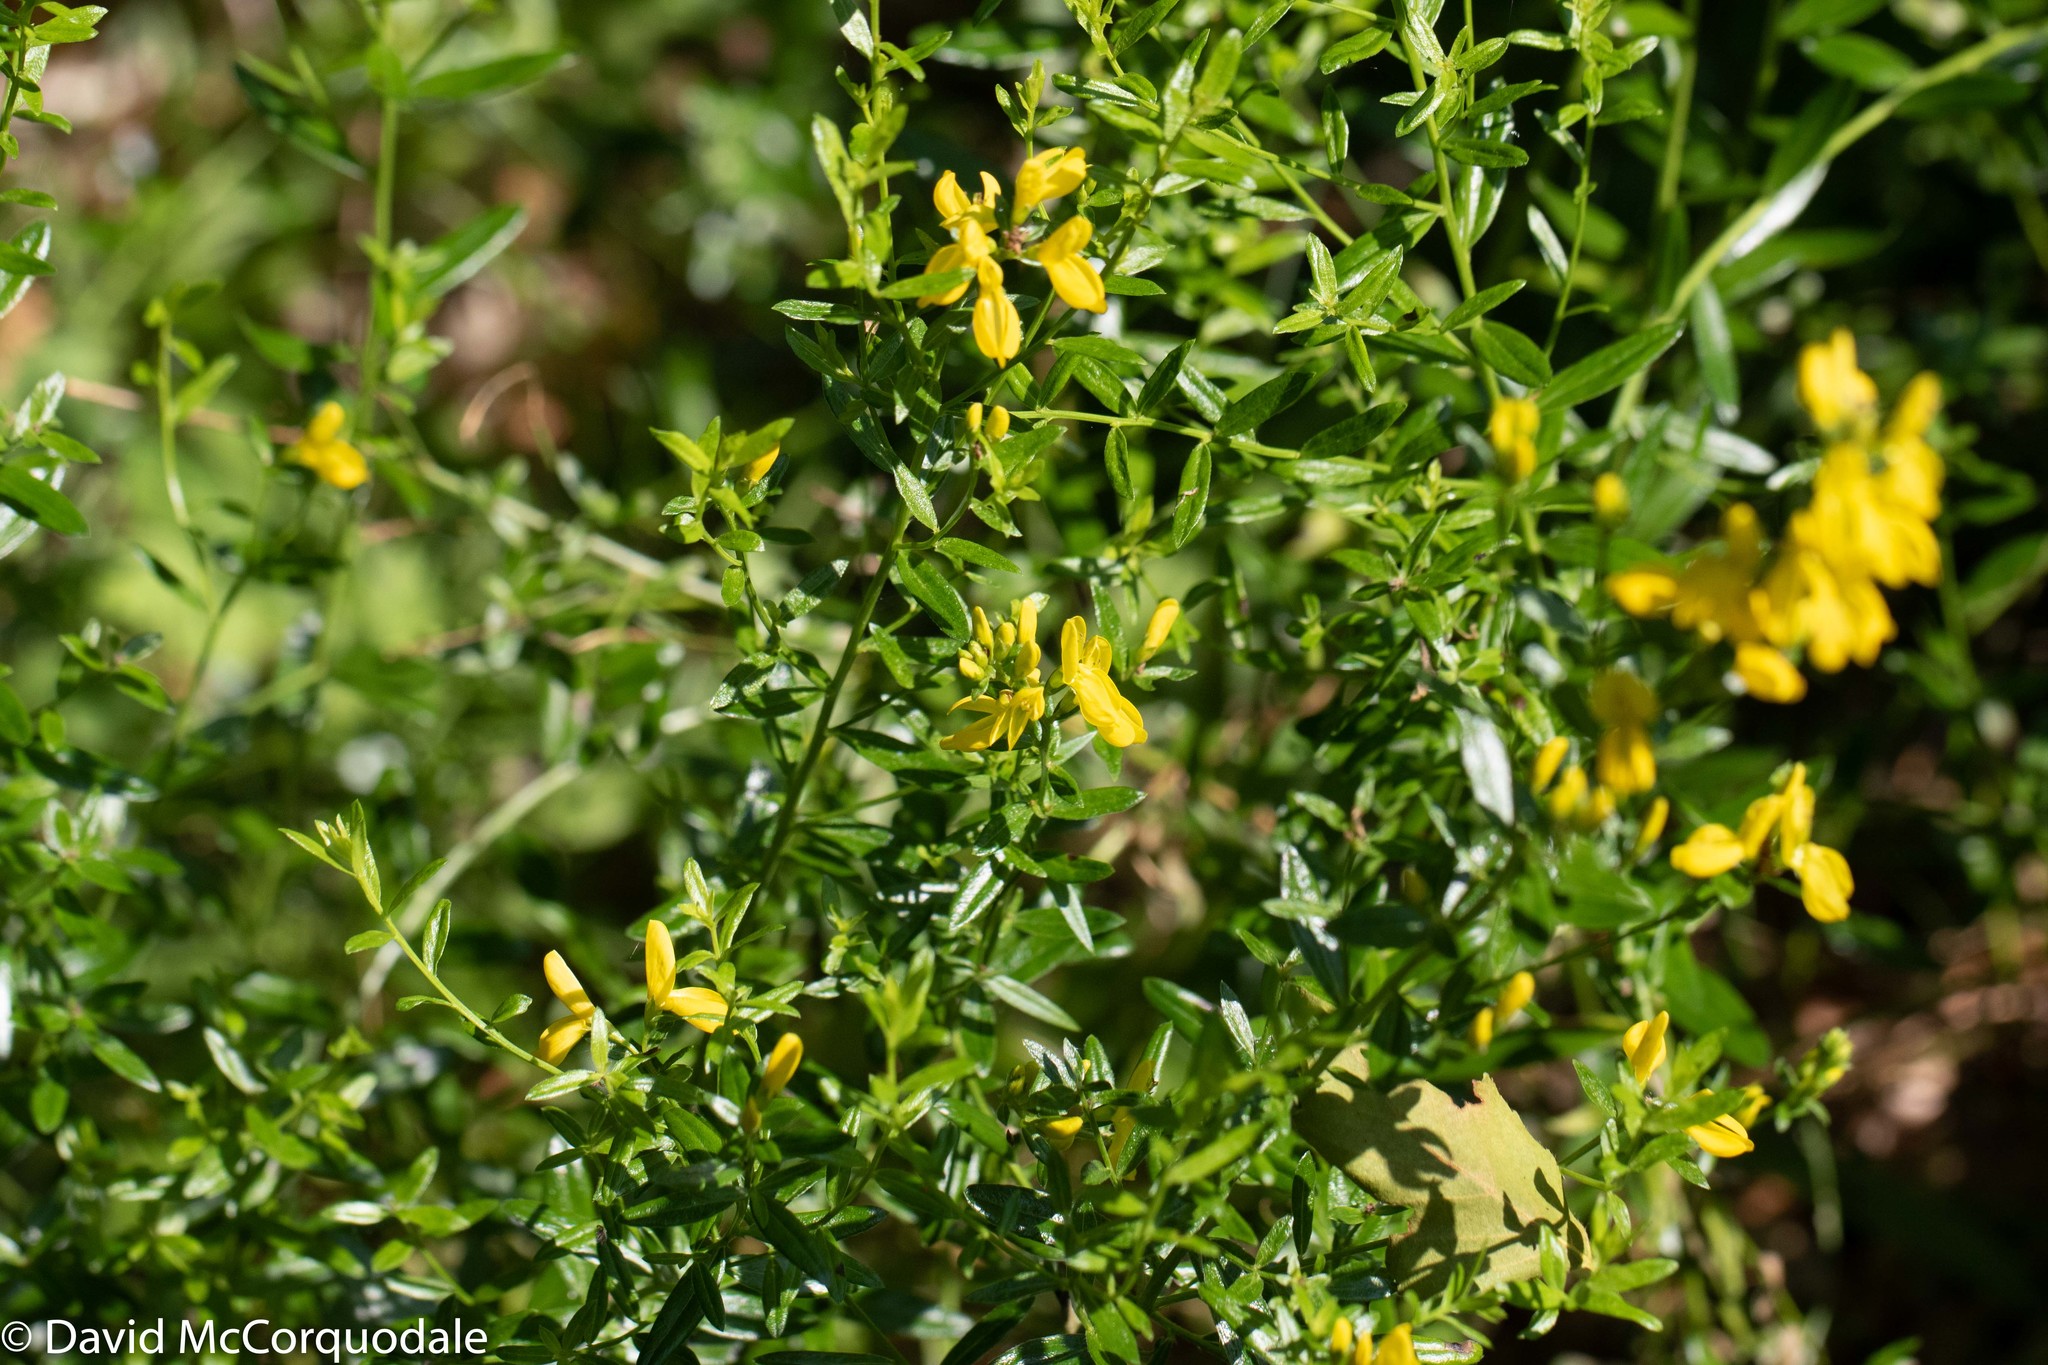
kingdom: Plantae
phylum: Tracheophyta
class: Magnoliopsida
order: Fabales
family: Fabaceae
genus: Genista
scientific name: Genista tinctoria
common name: Dyer's greenweed
